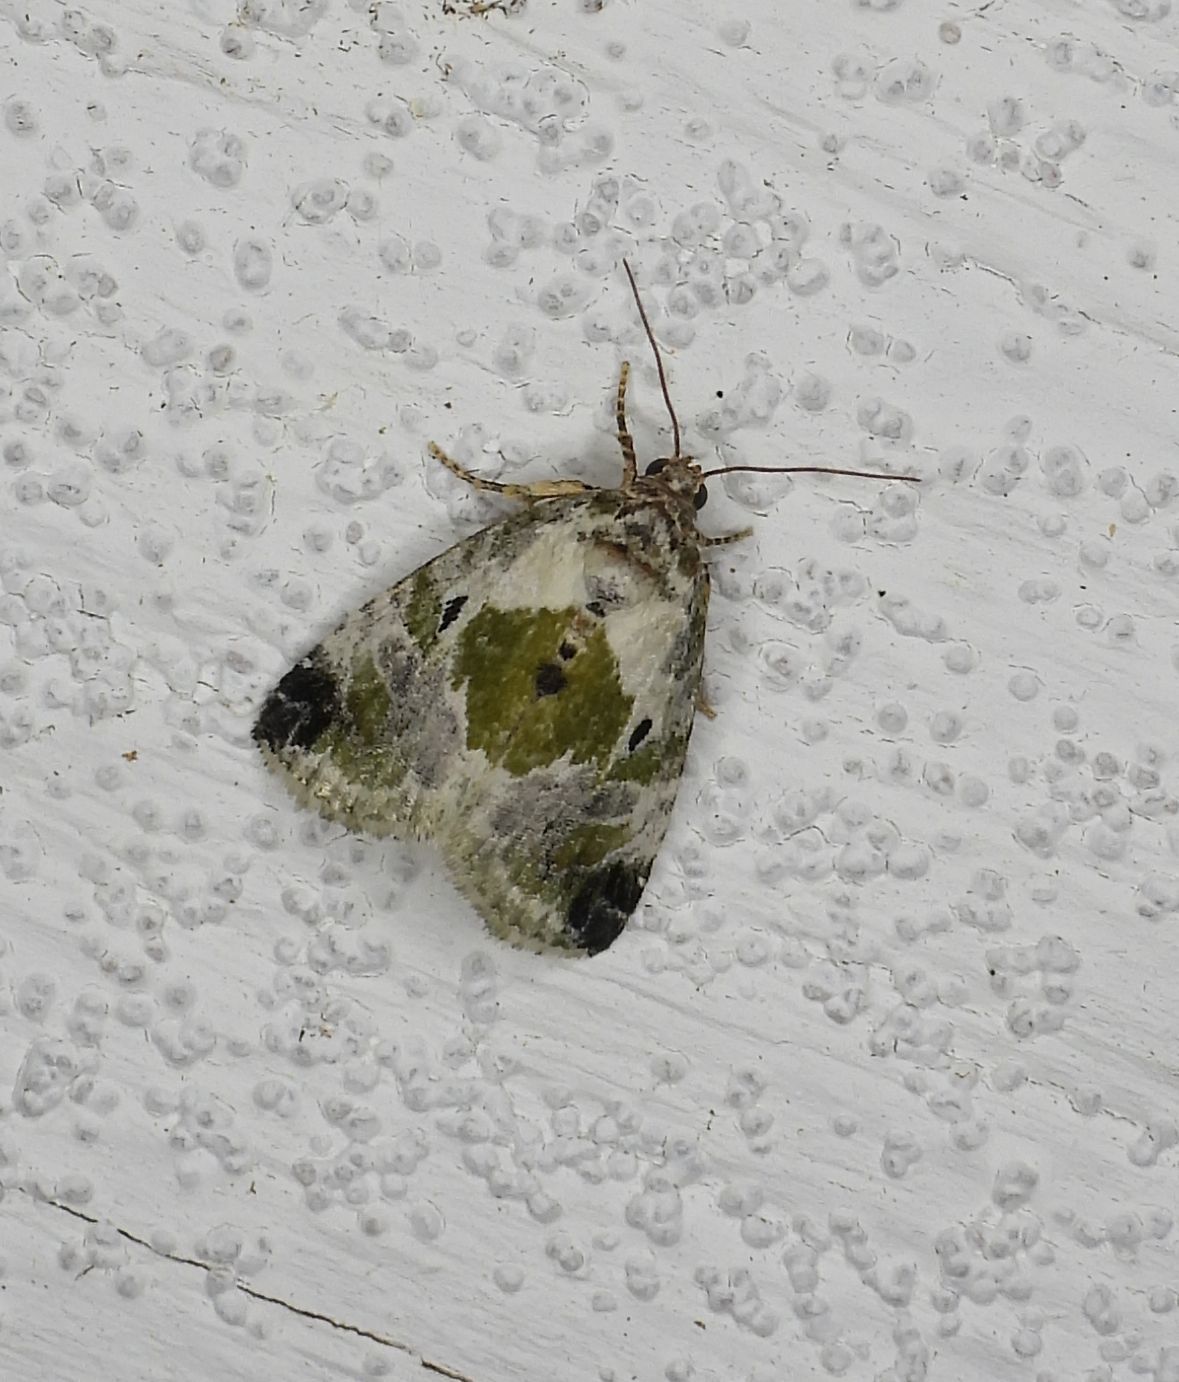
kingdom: Animalia
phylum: Arthropoda
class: Insecta
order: Lepidoptera
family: Noctuidae
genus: Maliattha
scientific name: Maliattha synochitis
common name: Black-dotted glyph
